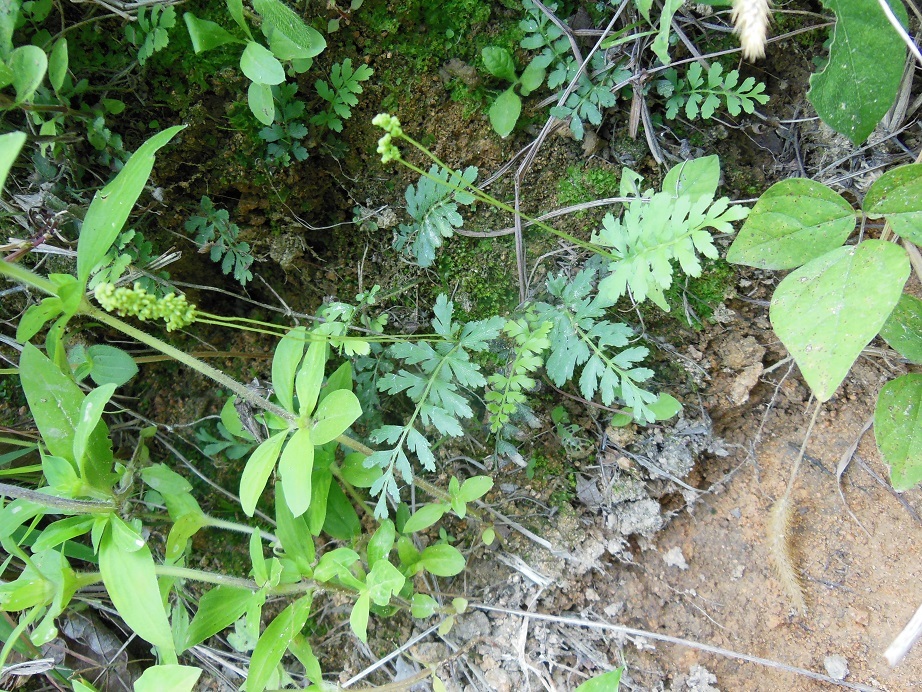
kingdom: Plantae
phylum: Tracheophyta
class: Polypodiopsida
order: Schizaeales
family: Anemiaceae
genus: Anemia
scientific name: Anemia cicutaria
